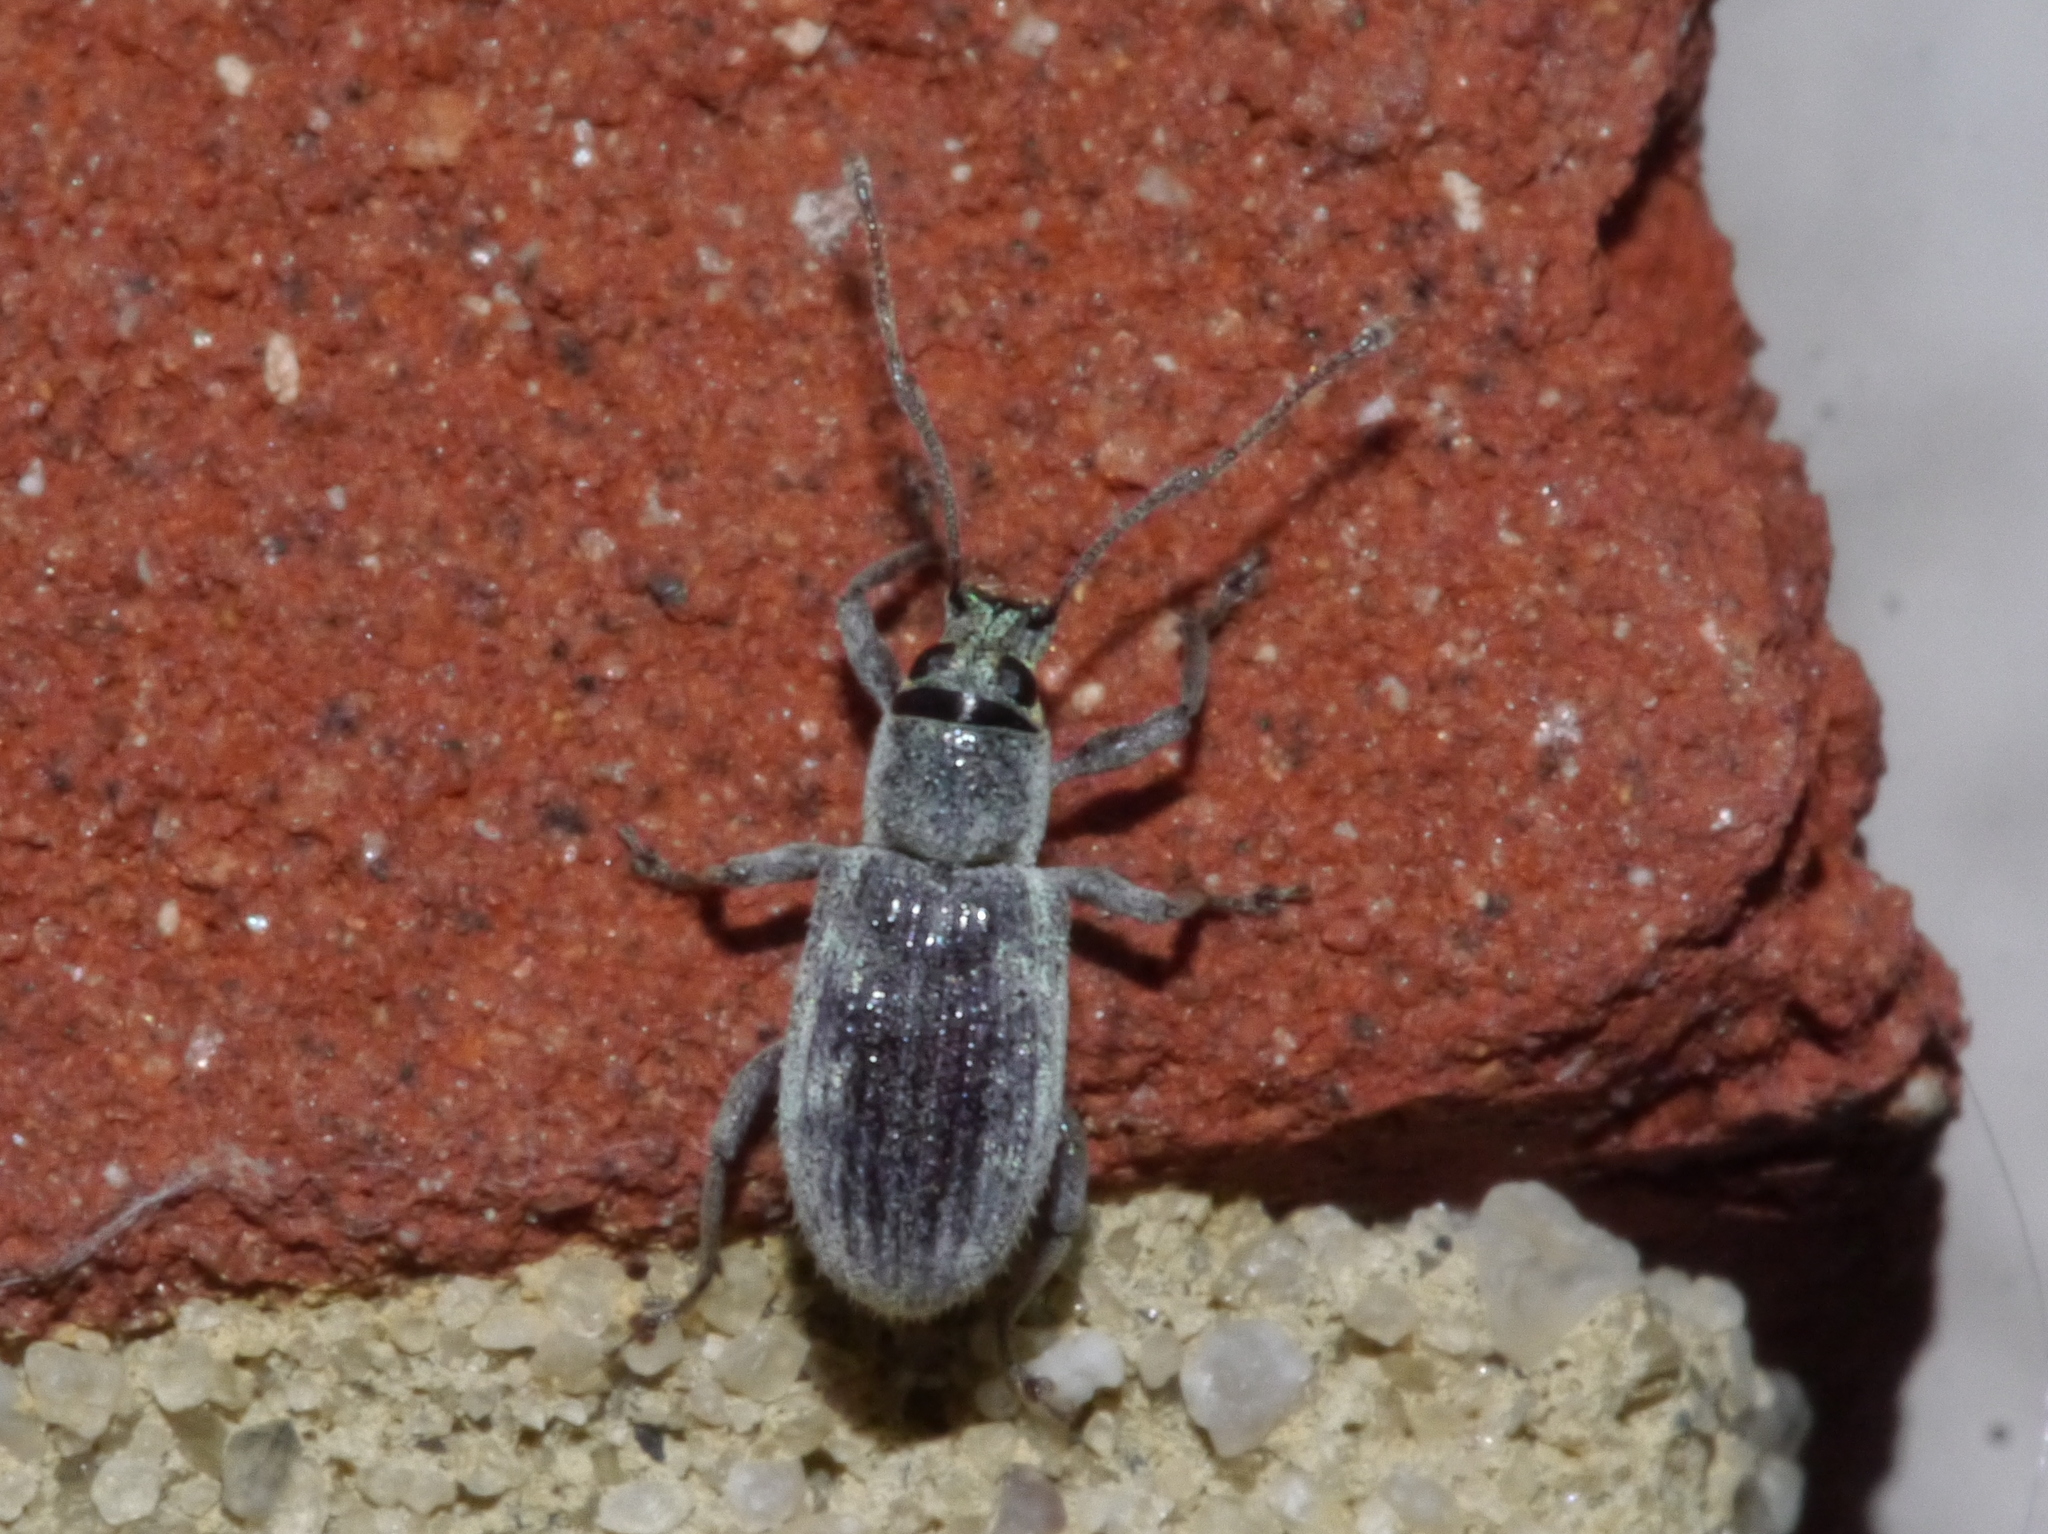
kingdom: Animalia
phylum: Arthropoda
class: Insecta
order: Coleoptera
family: Curculionidae
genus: Cyrtepistomus
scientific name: Cyrtepistomus castaneus
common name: Weevil
